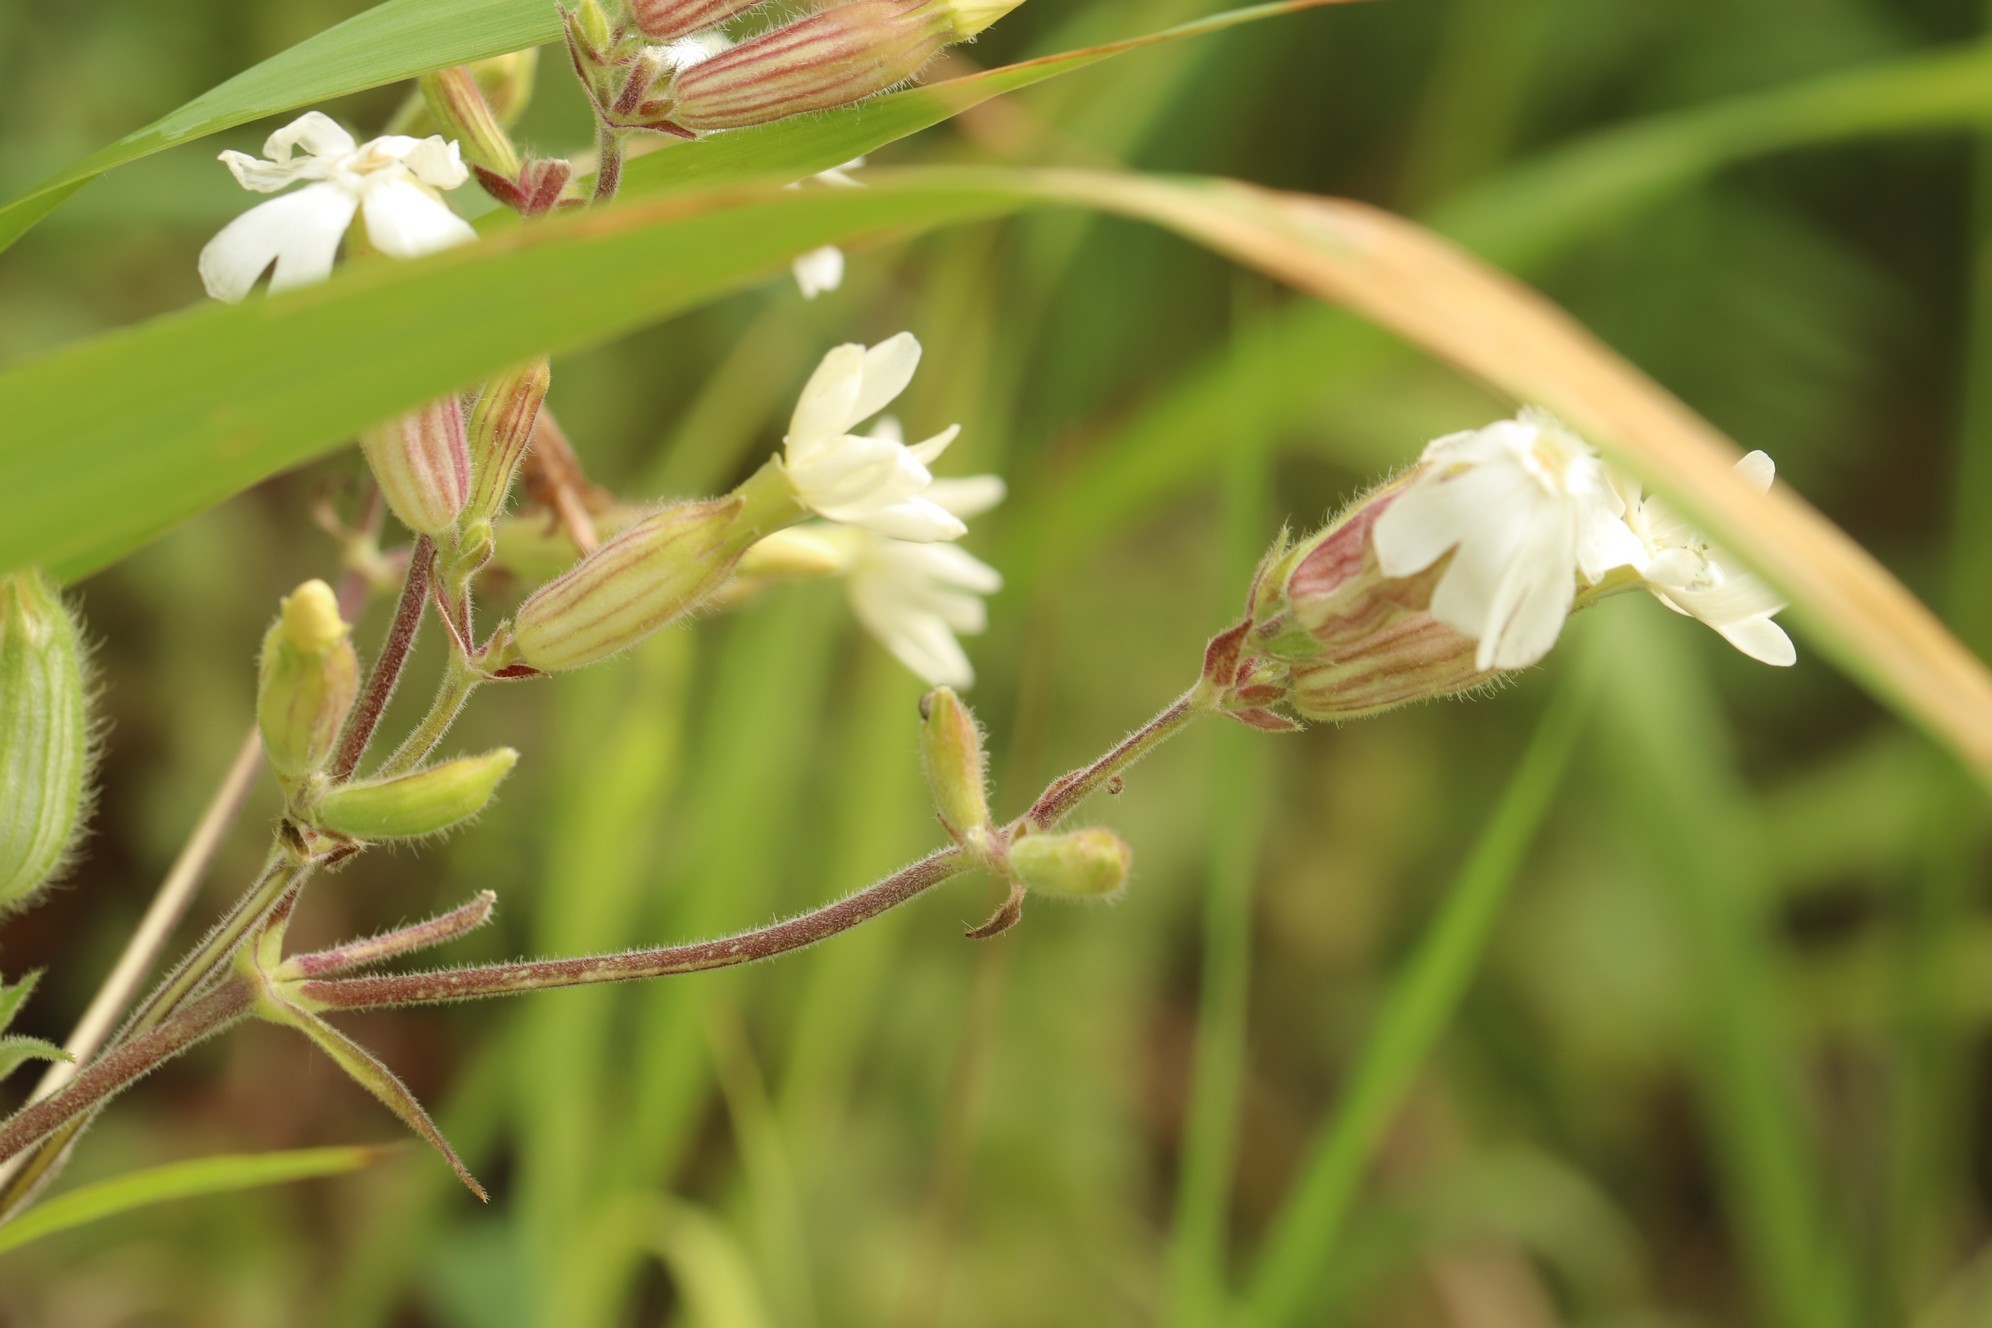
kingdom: Plantae
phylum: Tracheophyta
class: Magnoliopsida
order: Caryophyllales
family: Caryophyllaceae
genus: Silene
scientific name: Silene latifolia
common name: White campion
